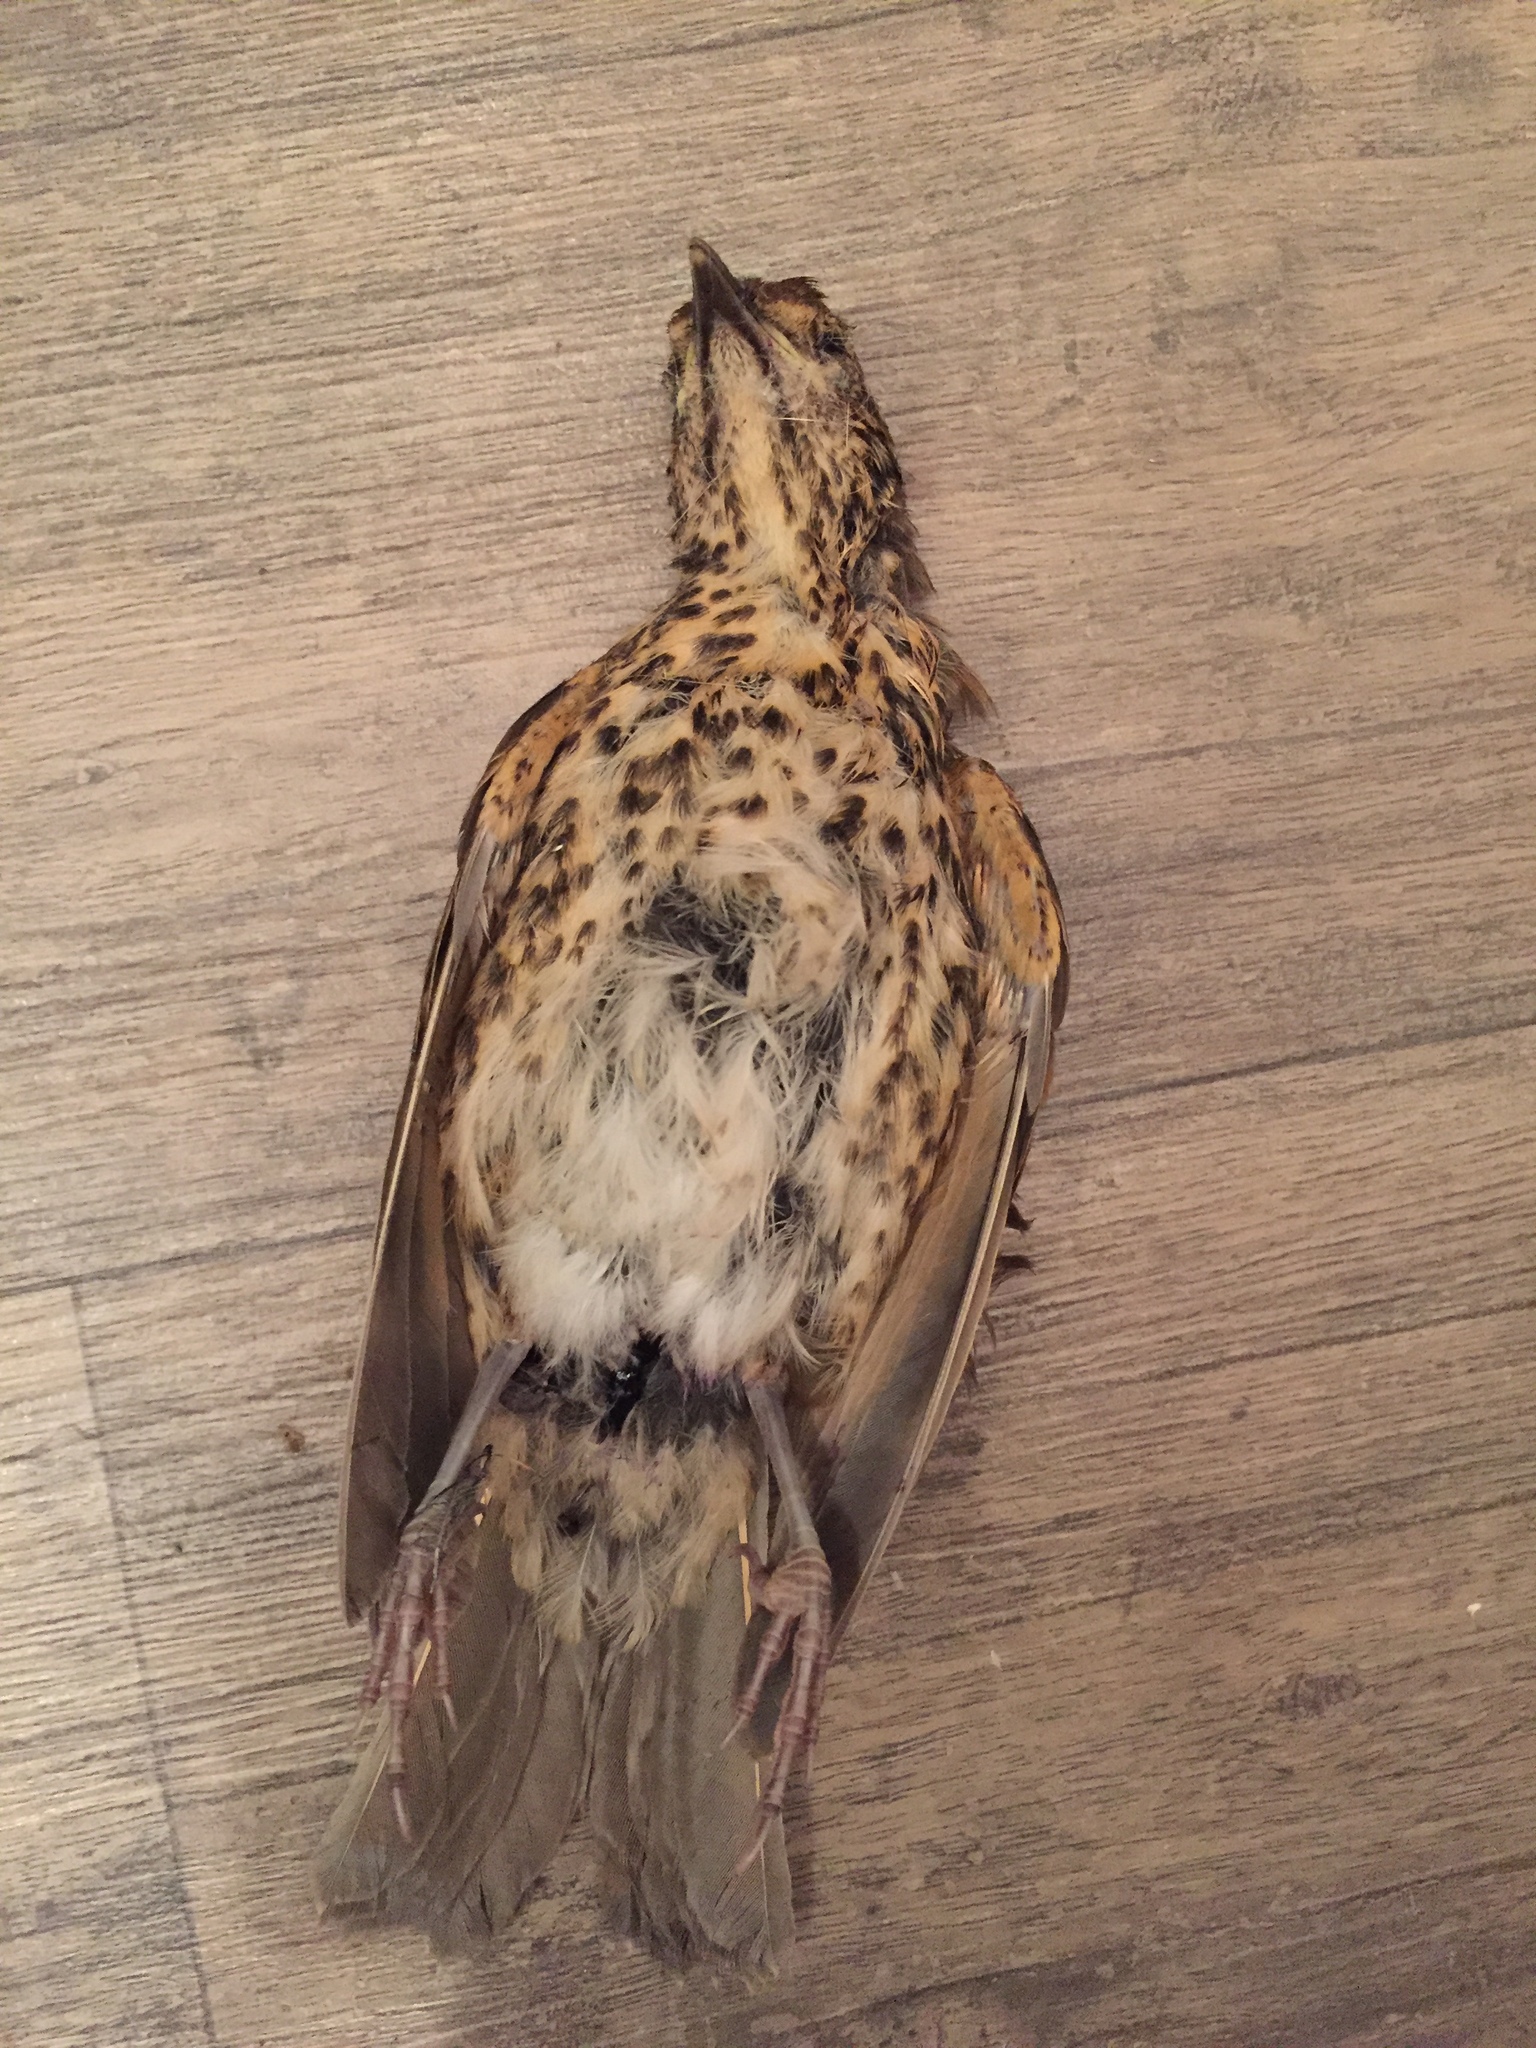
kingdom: Animalia
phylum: Chordata
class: Aves
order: Passeriformes
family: Turdidae
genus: Turdus
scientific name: Turdus philomelos
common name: Song thrush
